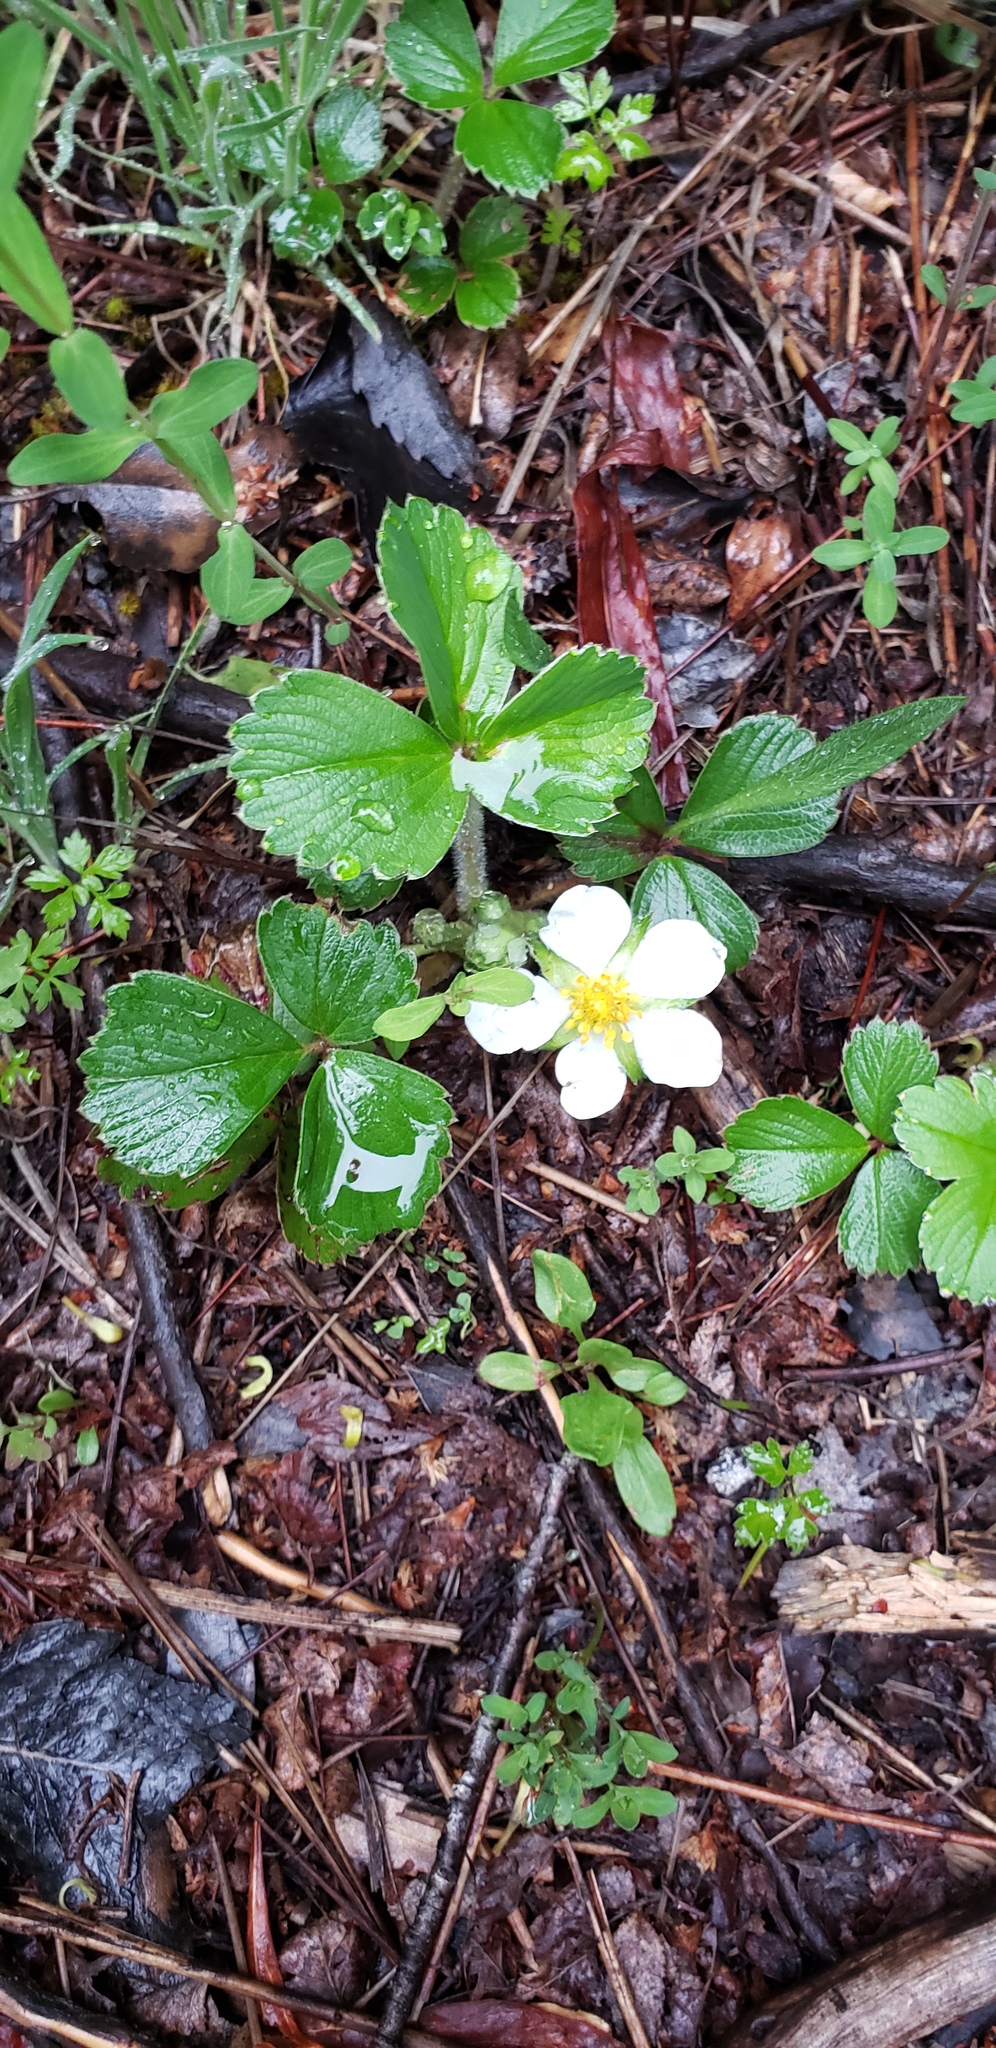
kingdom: Plantae
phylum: Tracheophyta
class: Magnoliopsida
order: Rosales
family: Rosaceae
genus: Fragaria
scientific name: Fragaria chiloensis
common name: Beach strawberry
